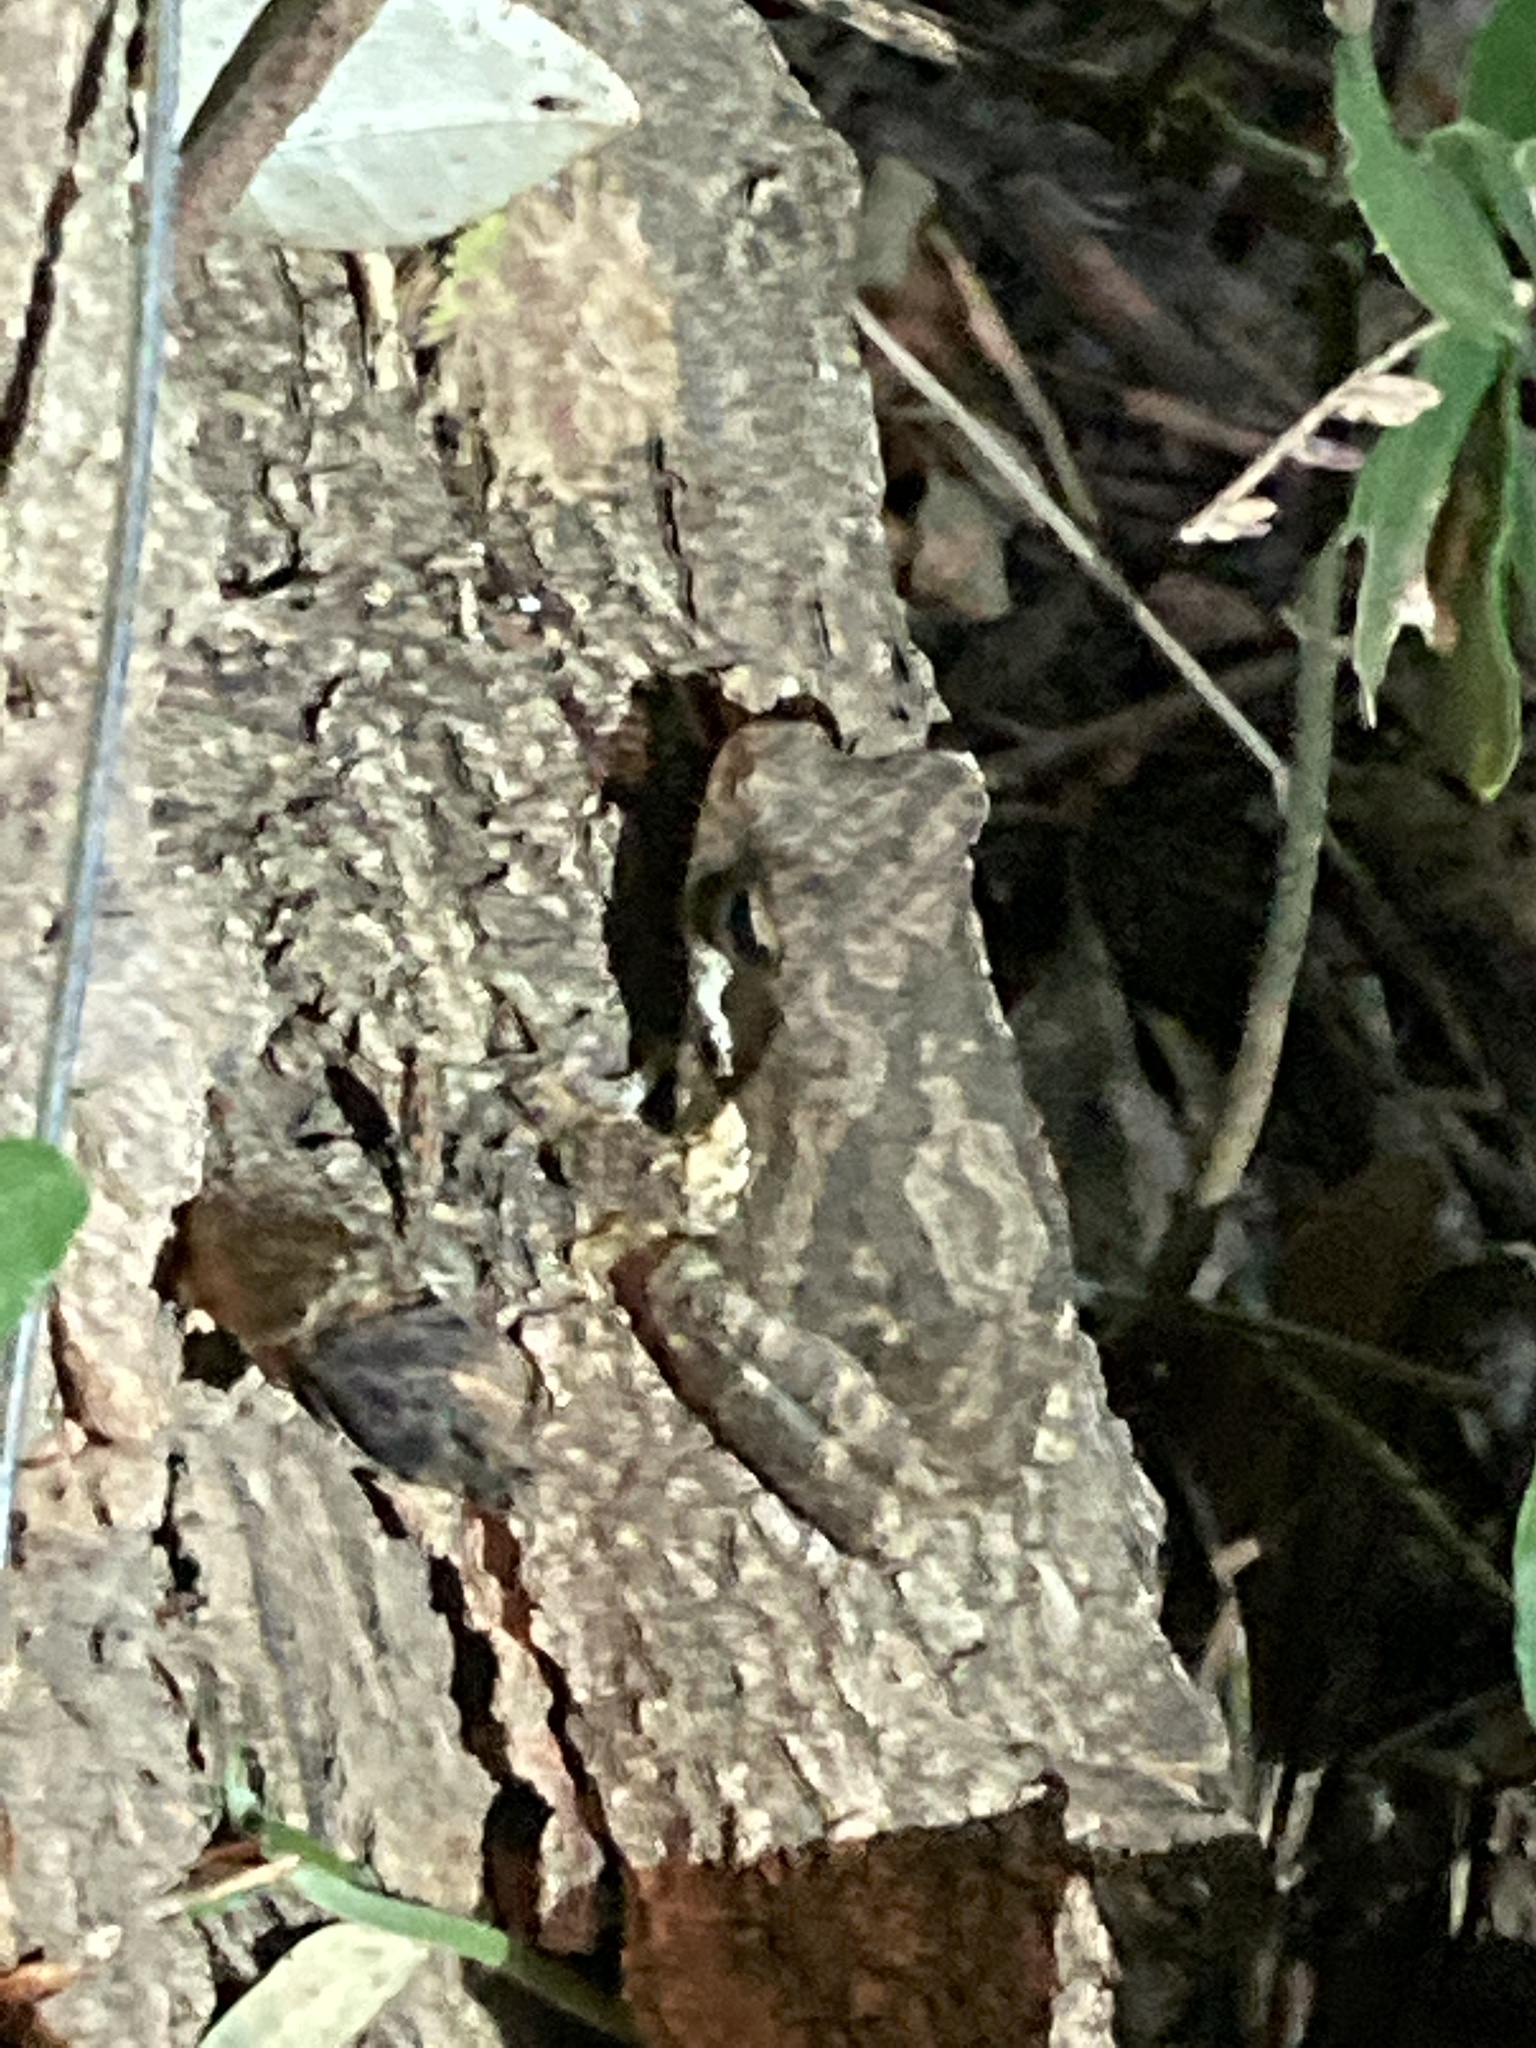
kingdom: Animalia
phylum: Chordata
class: Amphibia
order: Anura
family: Rhacophoridae
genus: Chiromantis
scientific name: Chiromantis xerampelina
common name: African gray treefrog
